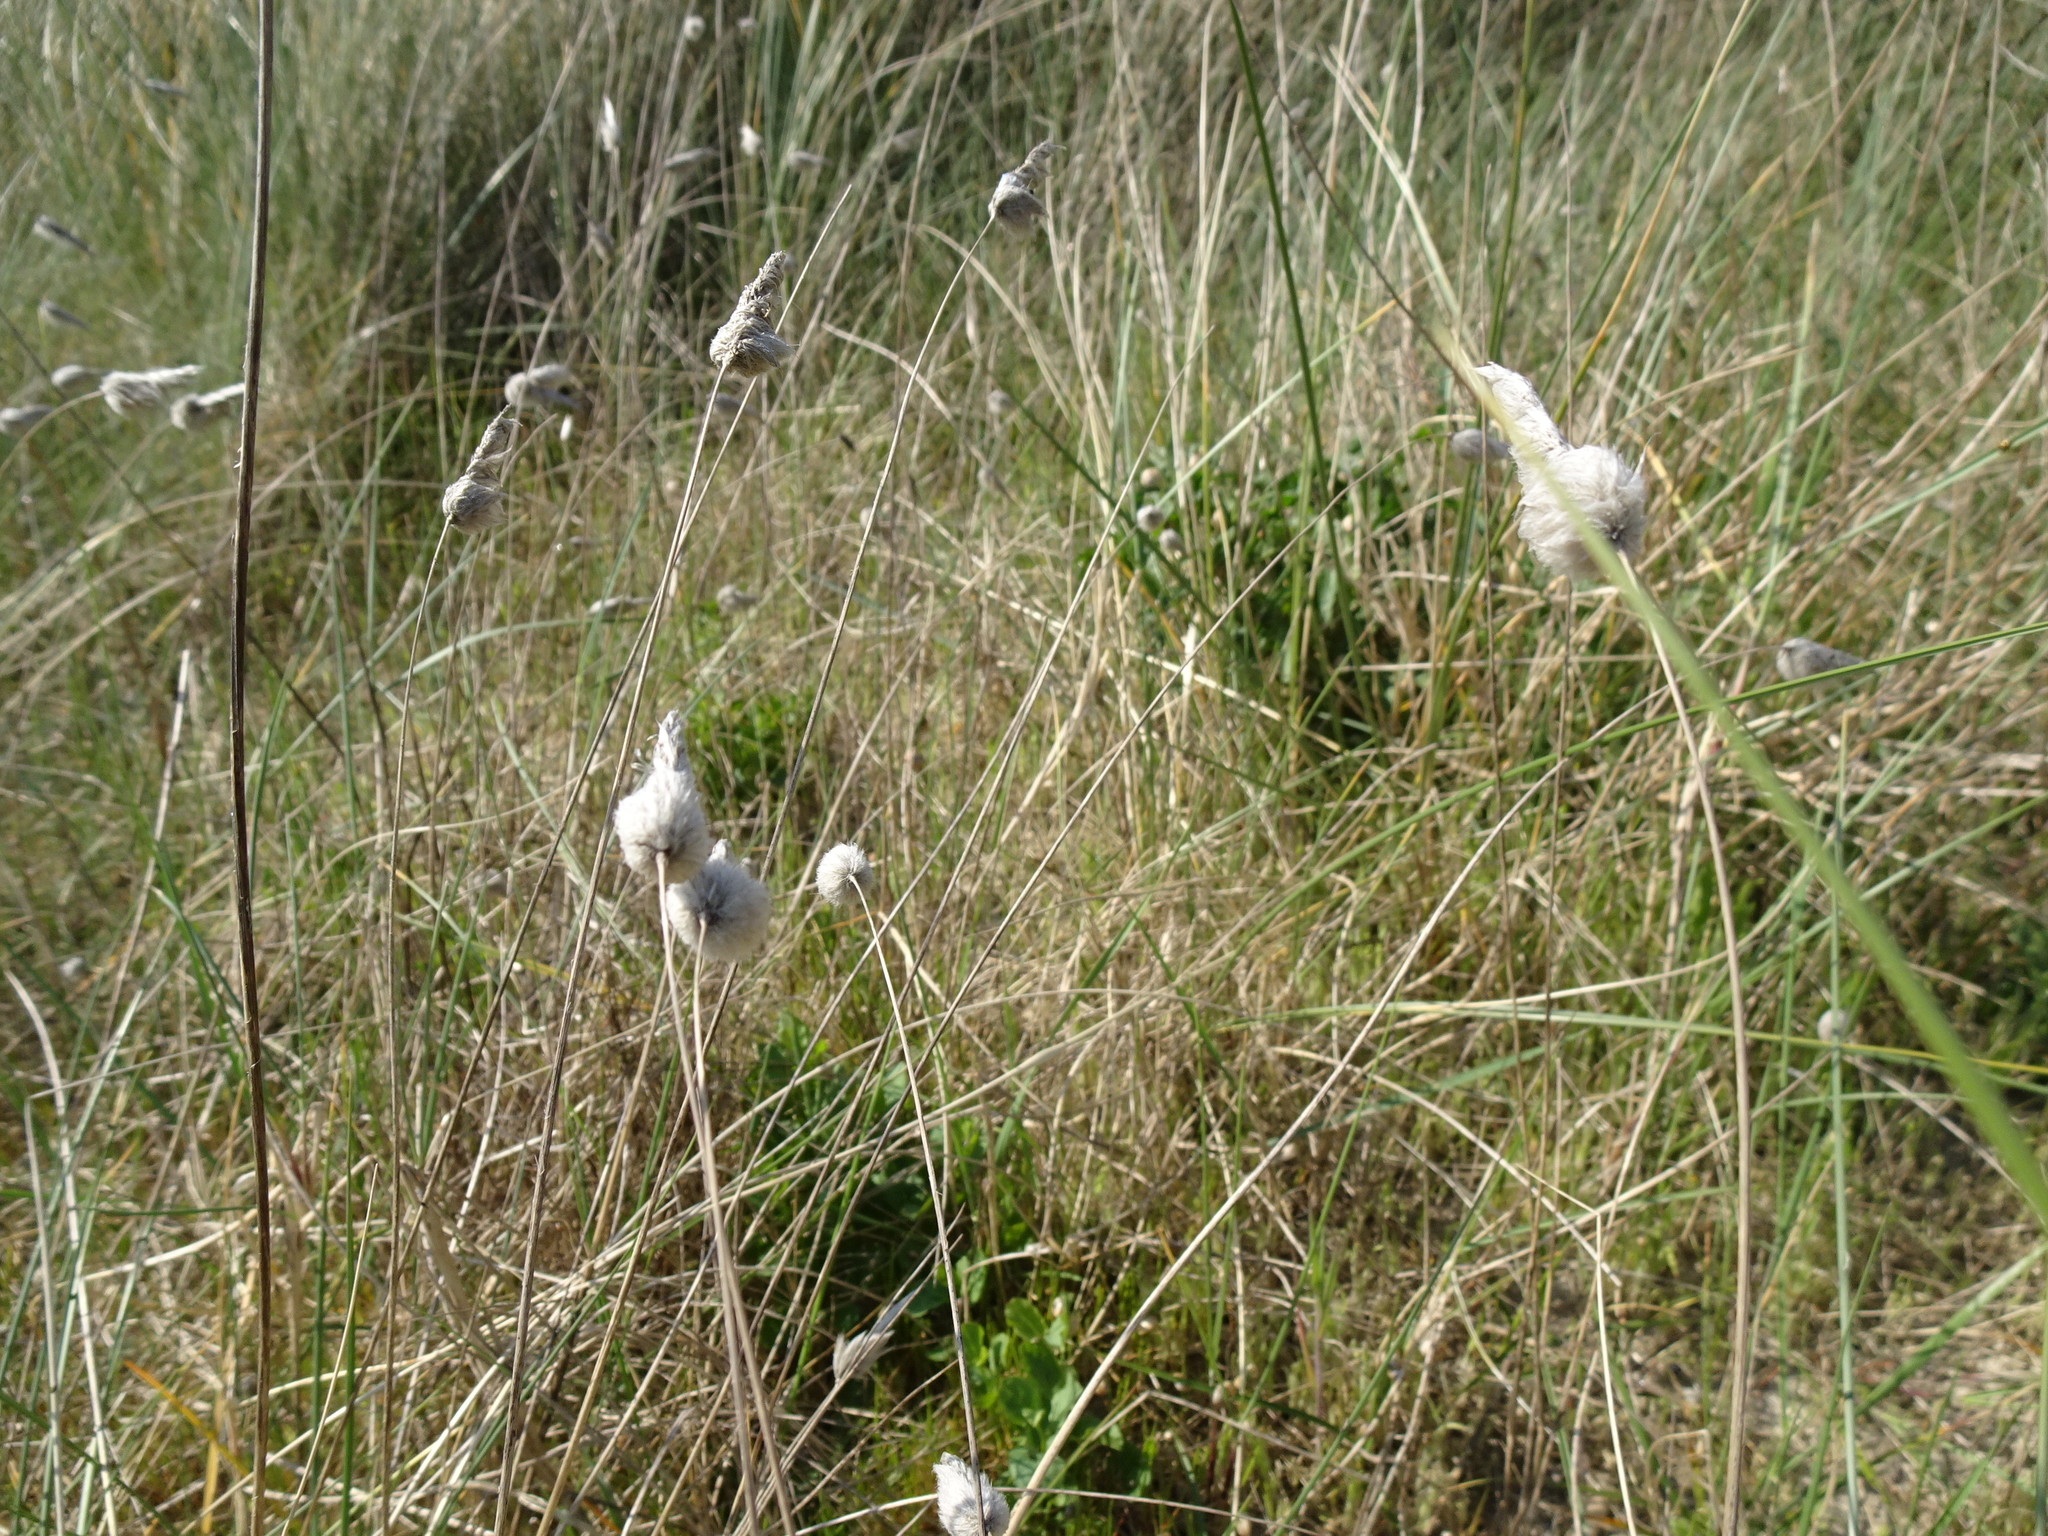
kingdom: Plantae
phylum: Tracheophyta
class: Liliopsida
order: Poales
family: Poaceae
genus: Lagurus
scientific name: Lagurus ovatus
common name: Hare's-tail
